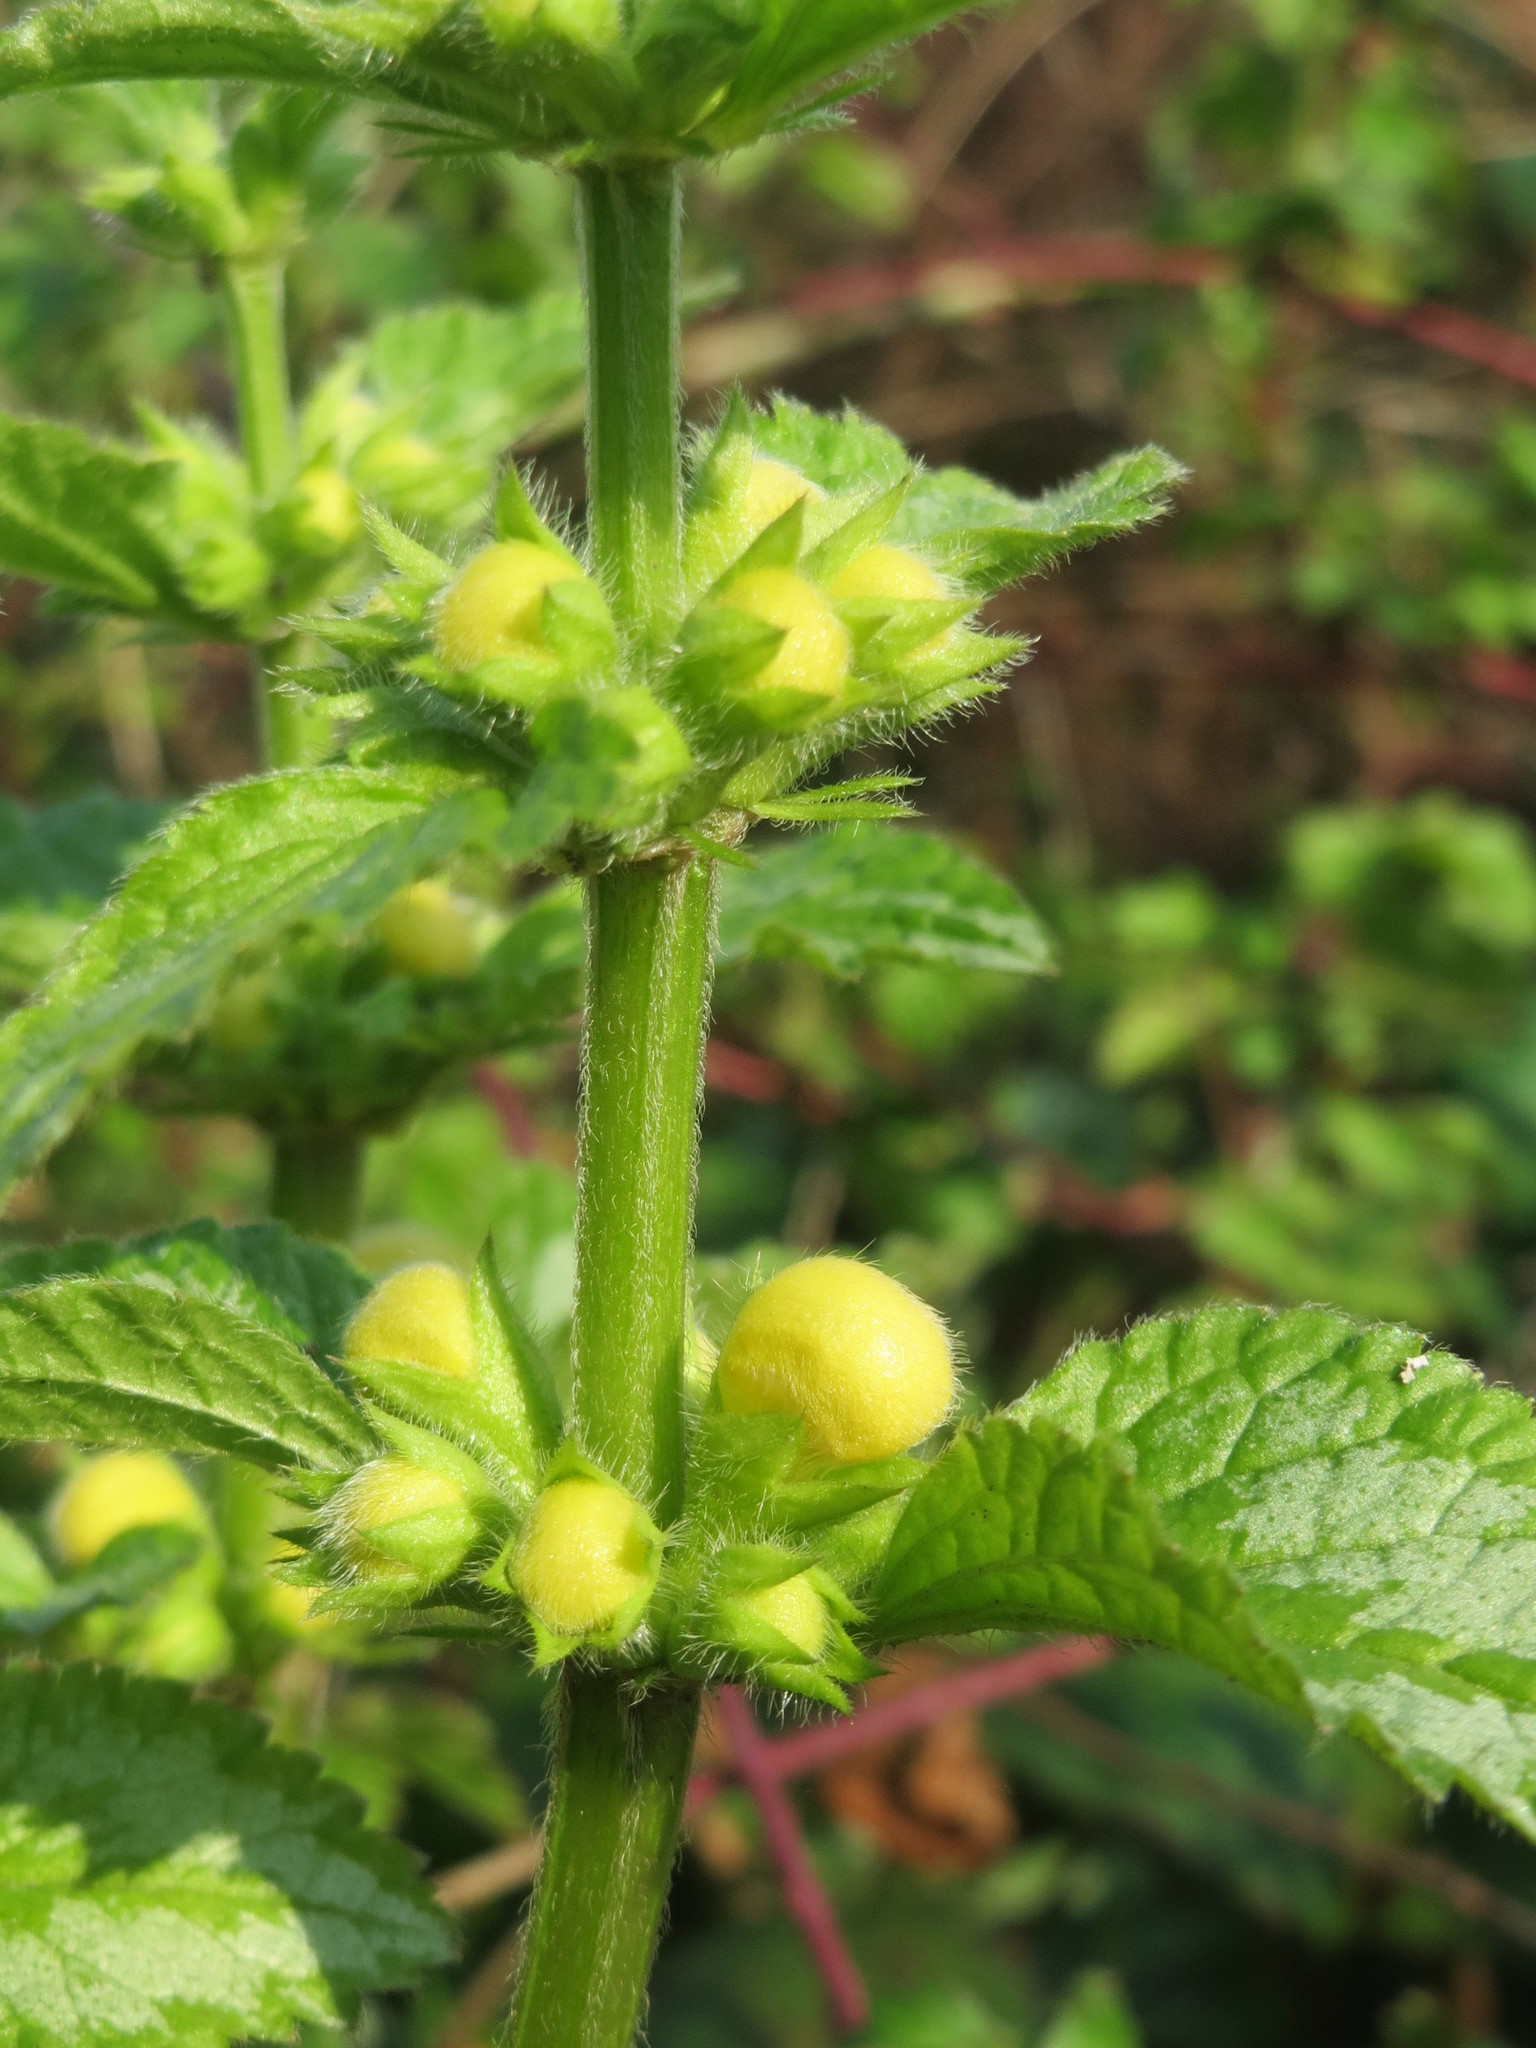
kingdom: Plantae
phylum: Tracheophyta
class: Magnoliopsida
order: Lamiales
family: Lamiaceae
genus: Lamium
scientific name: Lamium galeobdolon
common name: Yellow archangel
